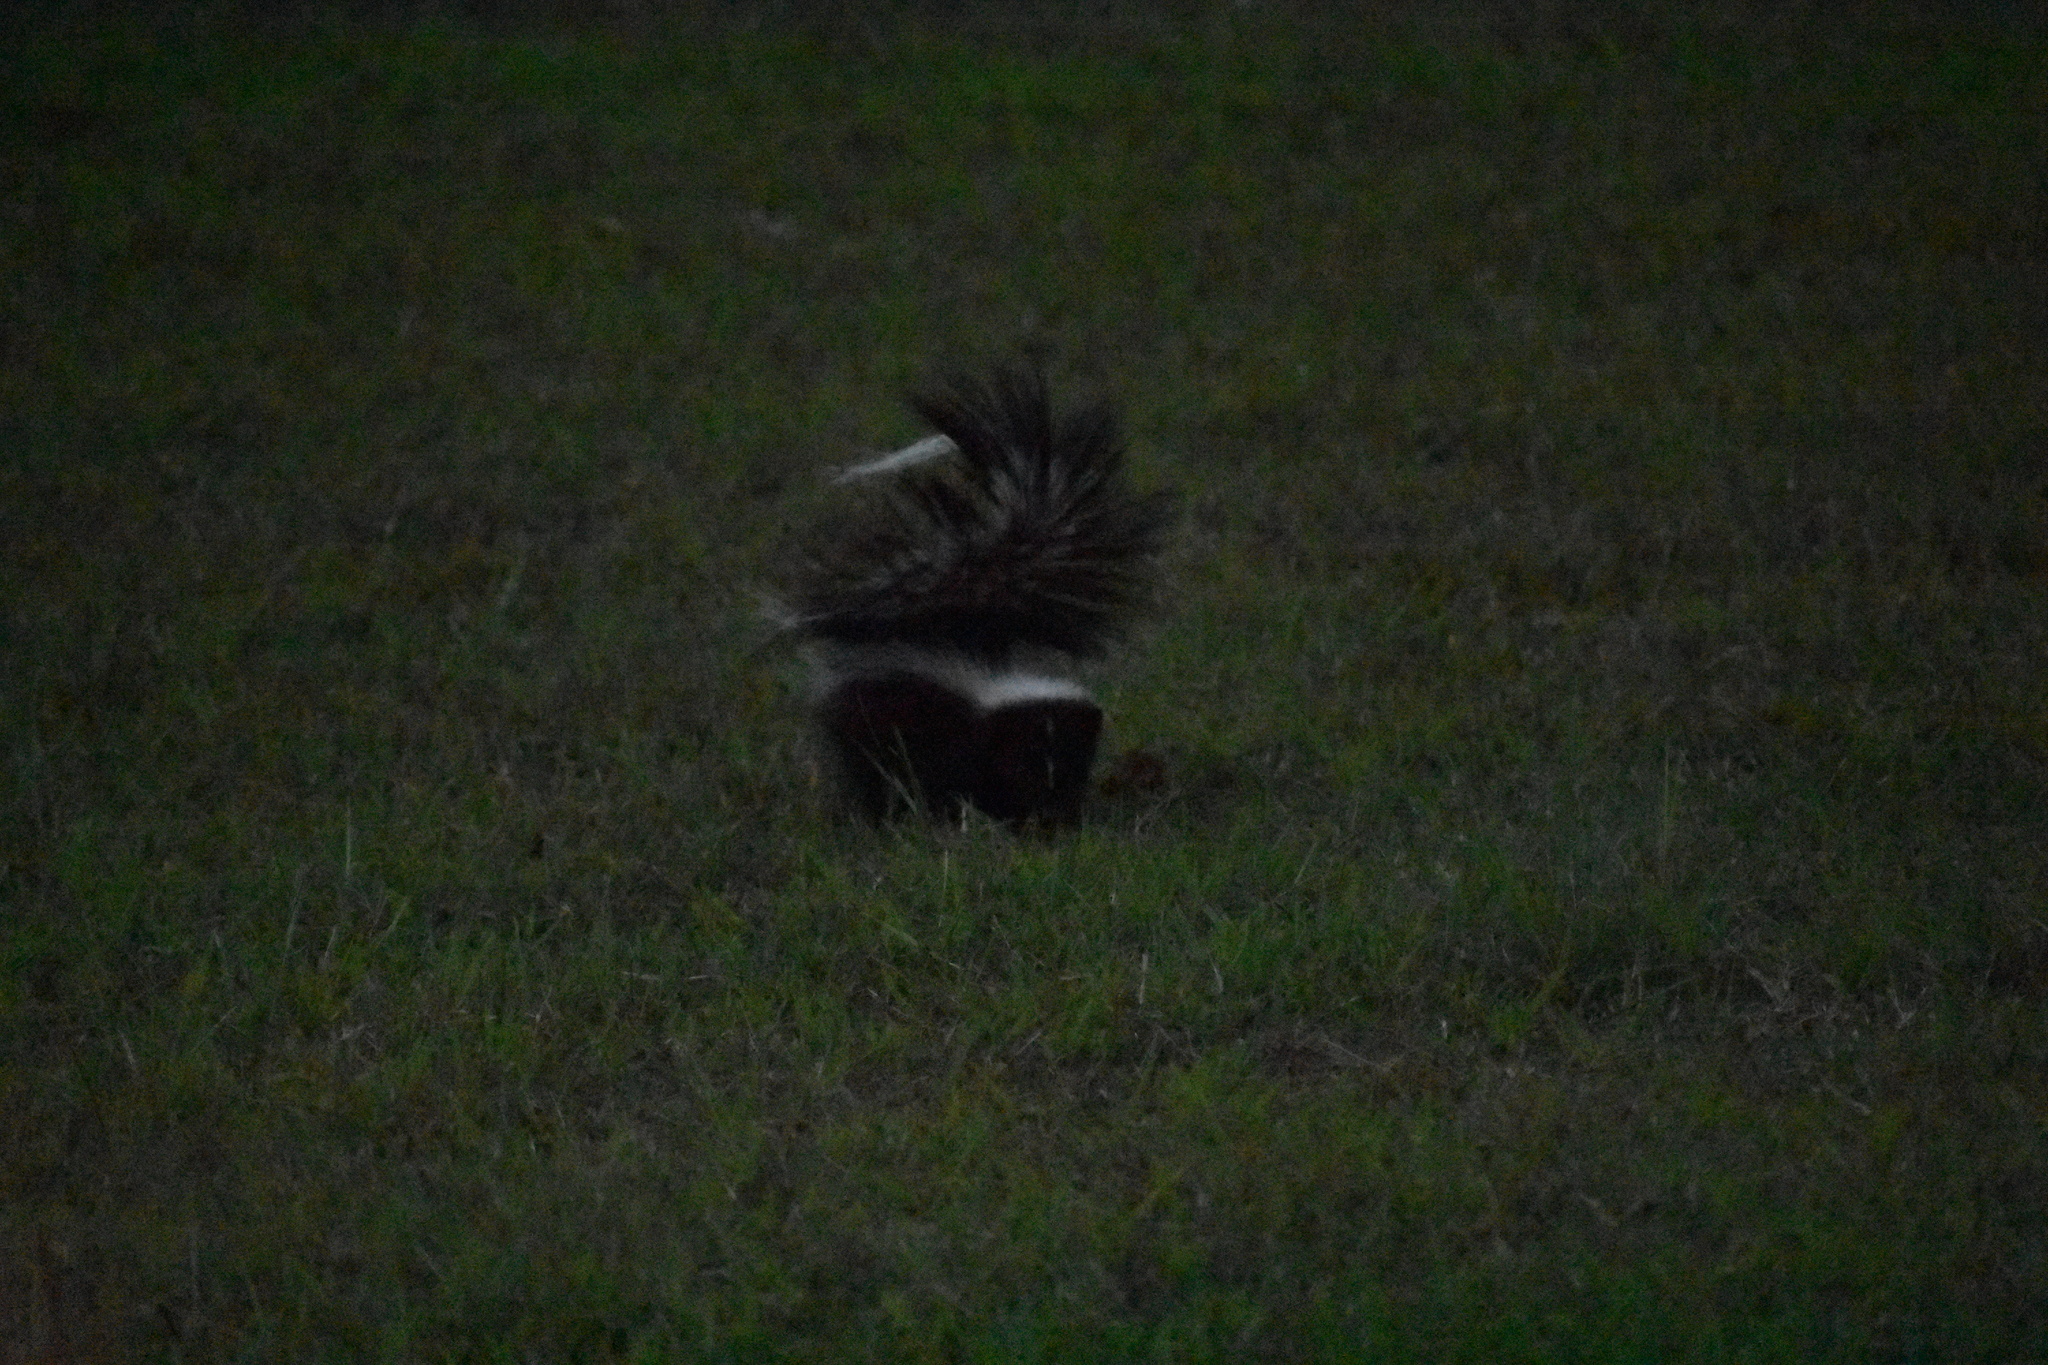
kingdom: Animalia
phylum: Chordata
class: Mammalia
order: Carnivora
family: Mephitidae
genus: Mephitis
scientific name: Mephitis mephitis
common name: Striped skunk
